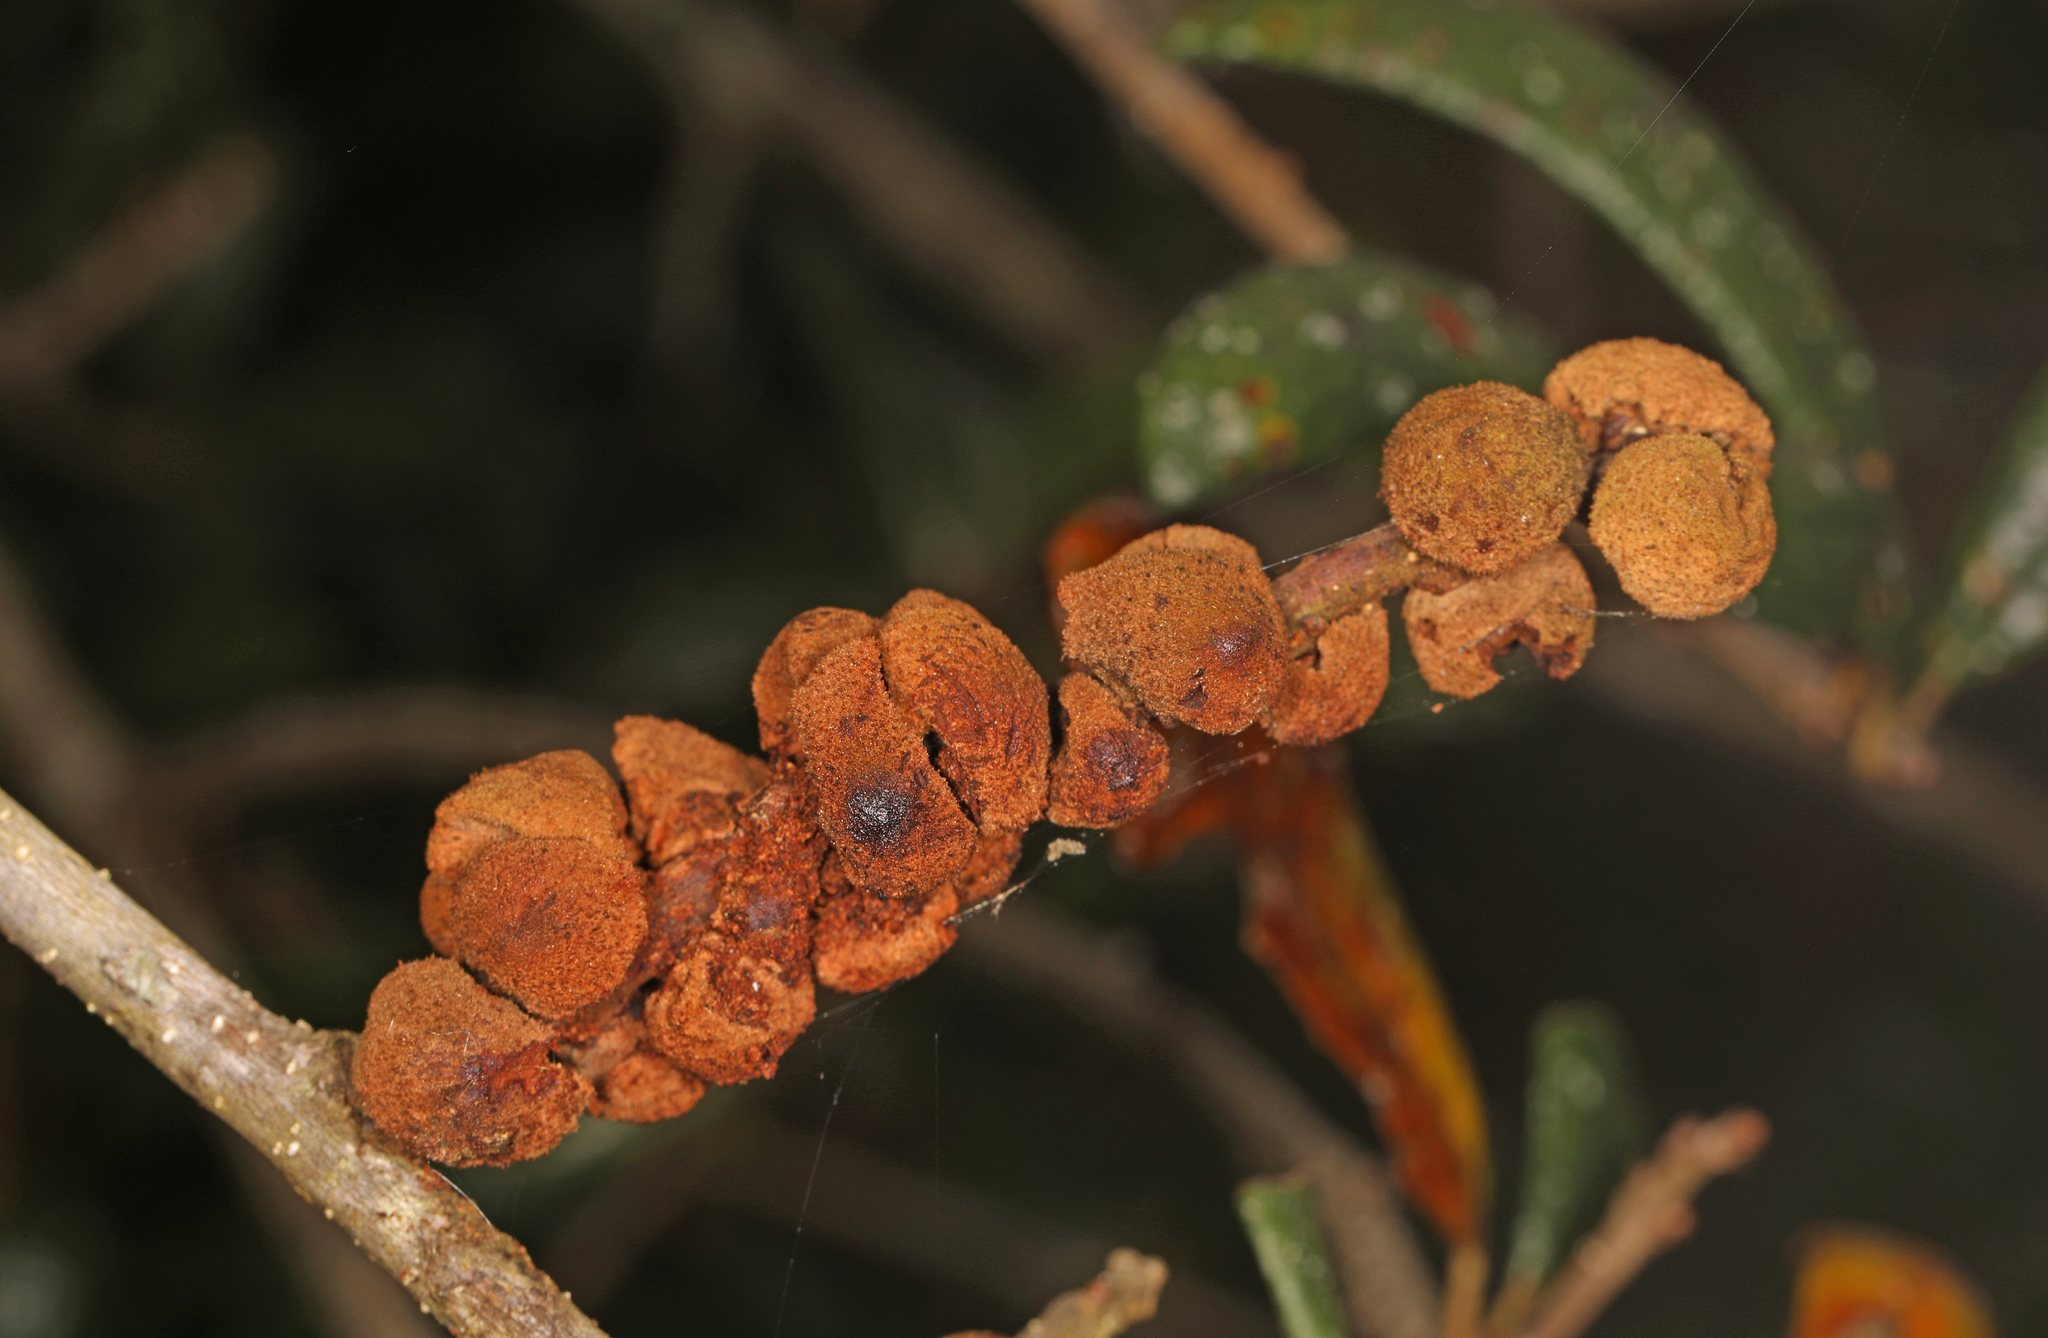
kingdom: Animalia
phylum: Arthropoda
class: Insecta
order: Hymenoptera
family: Cynipidae
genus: Disholcaspis
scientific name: Disholcaspis
